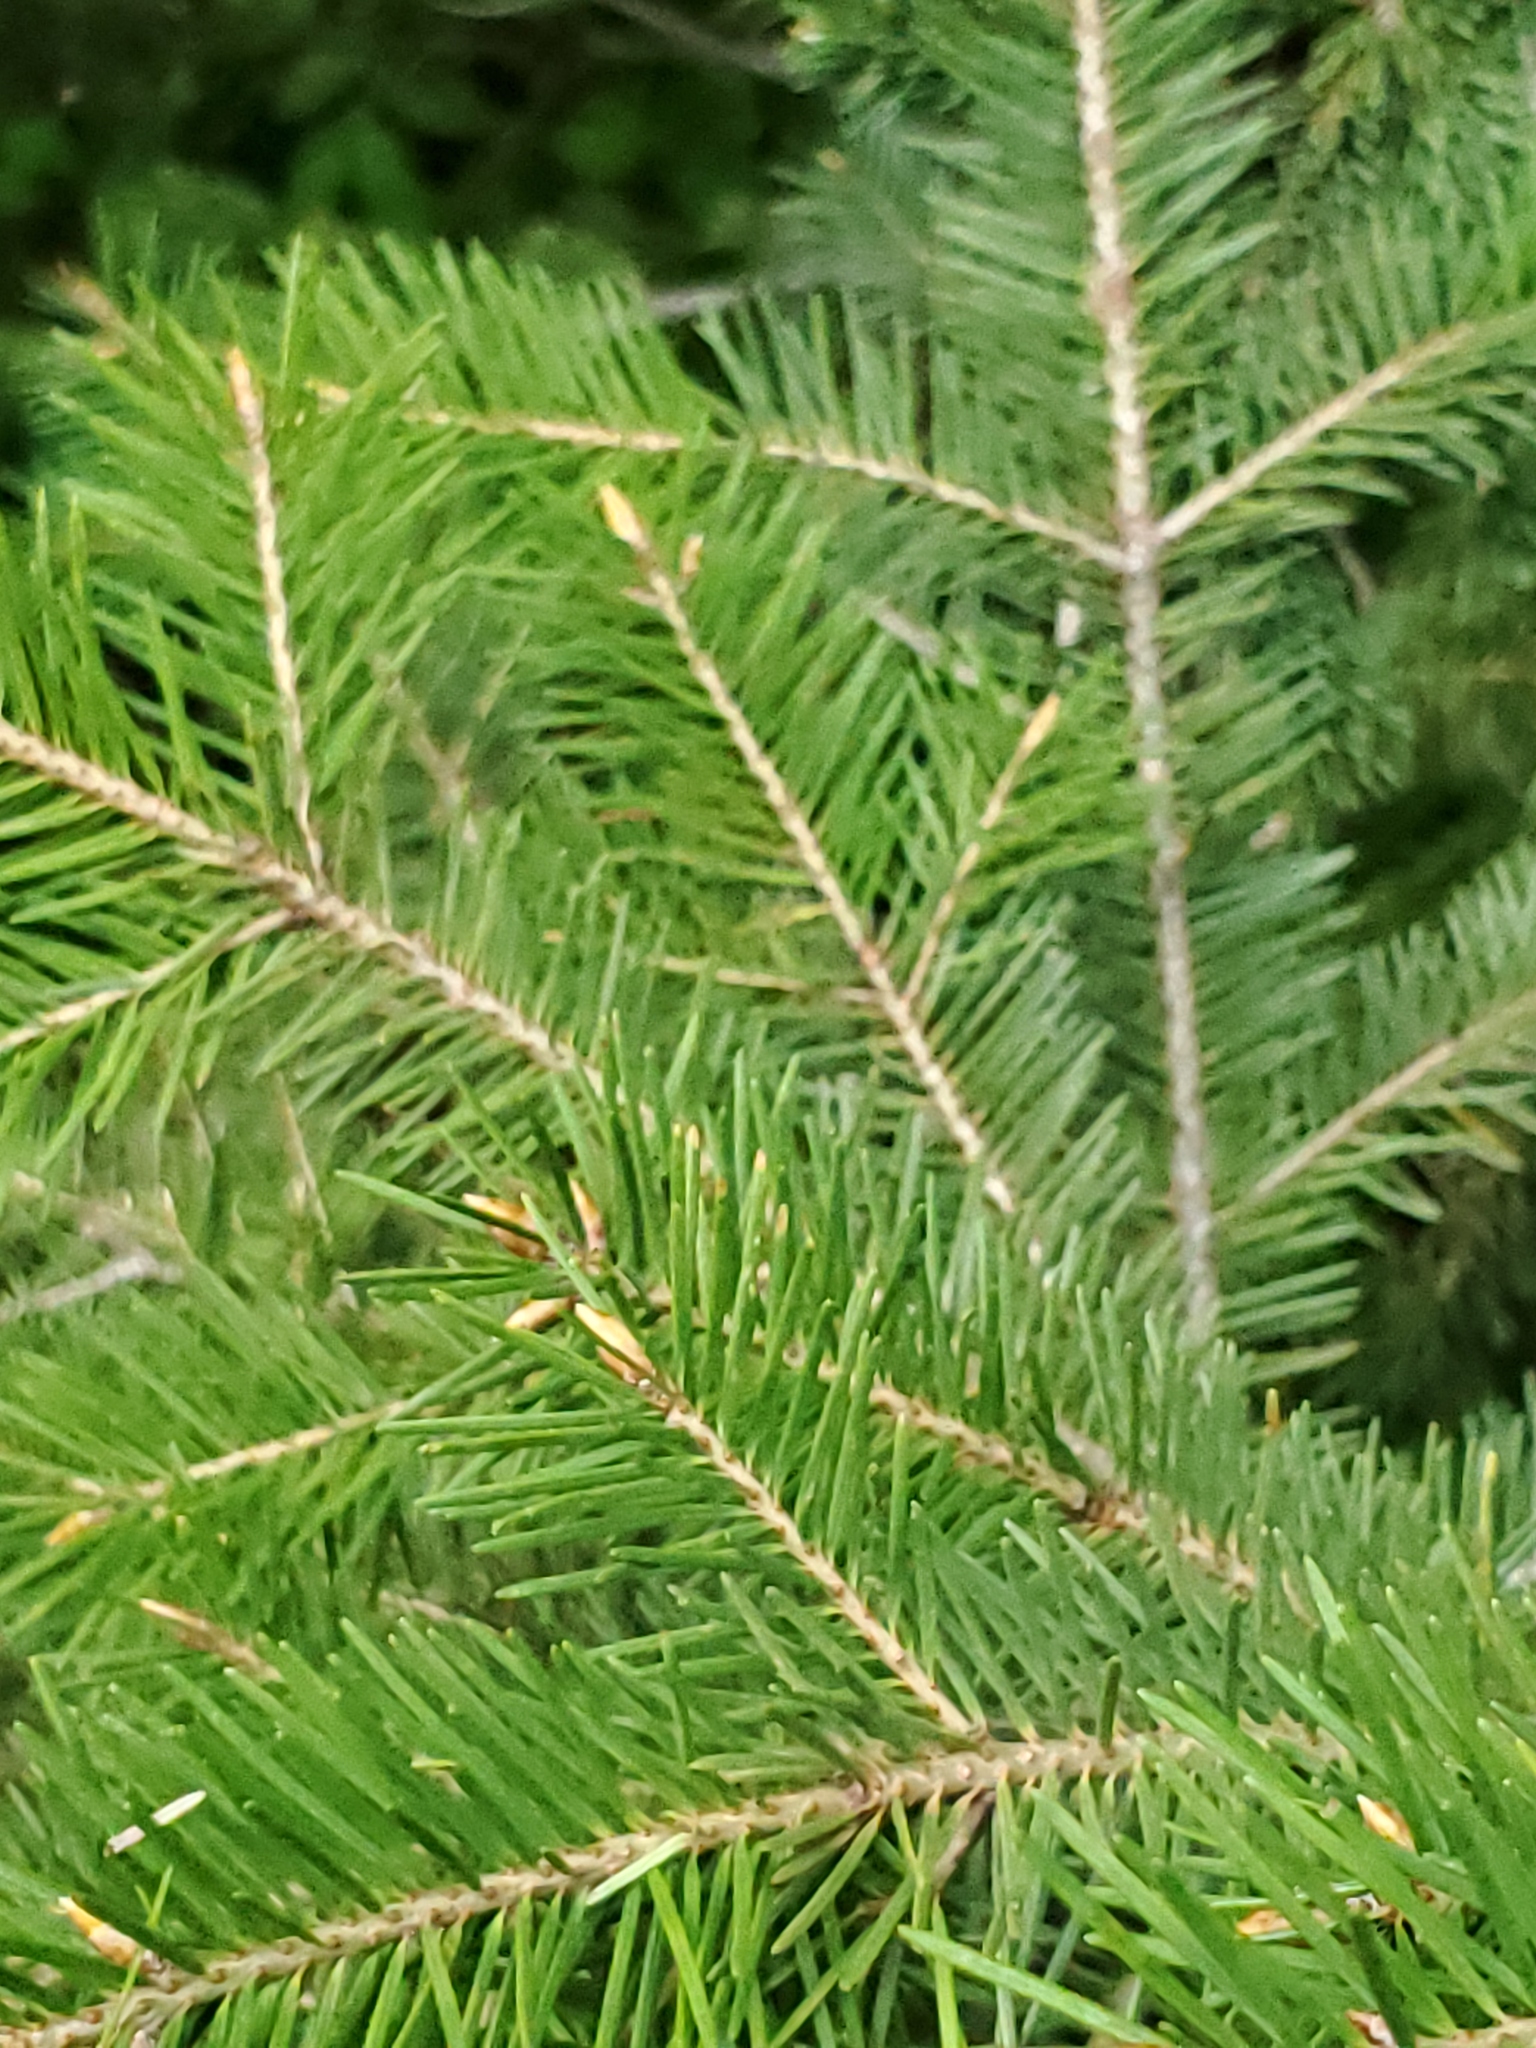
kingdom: Plantae
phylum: Tracheophyta
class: Pinopsida
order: Pinales
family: Pinaceae
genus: Pseudotsuga
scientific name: Pseudotsuga menziesii
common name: Douglas fir
